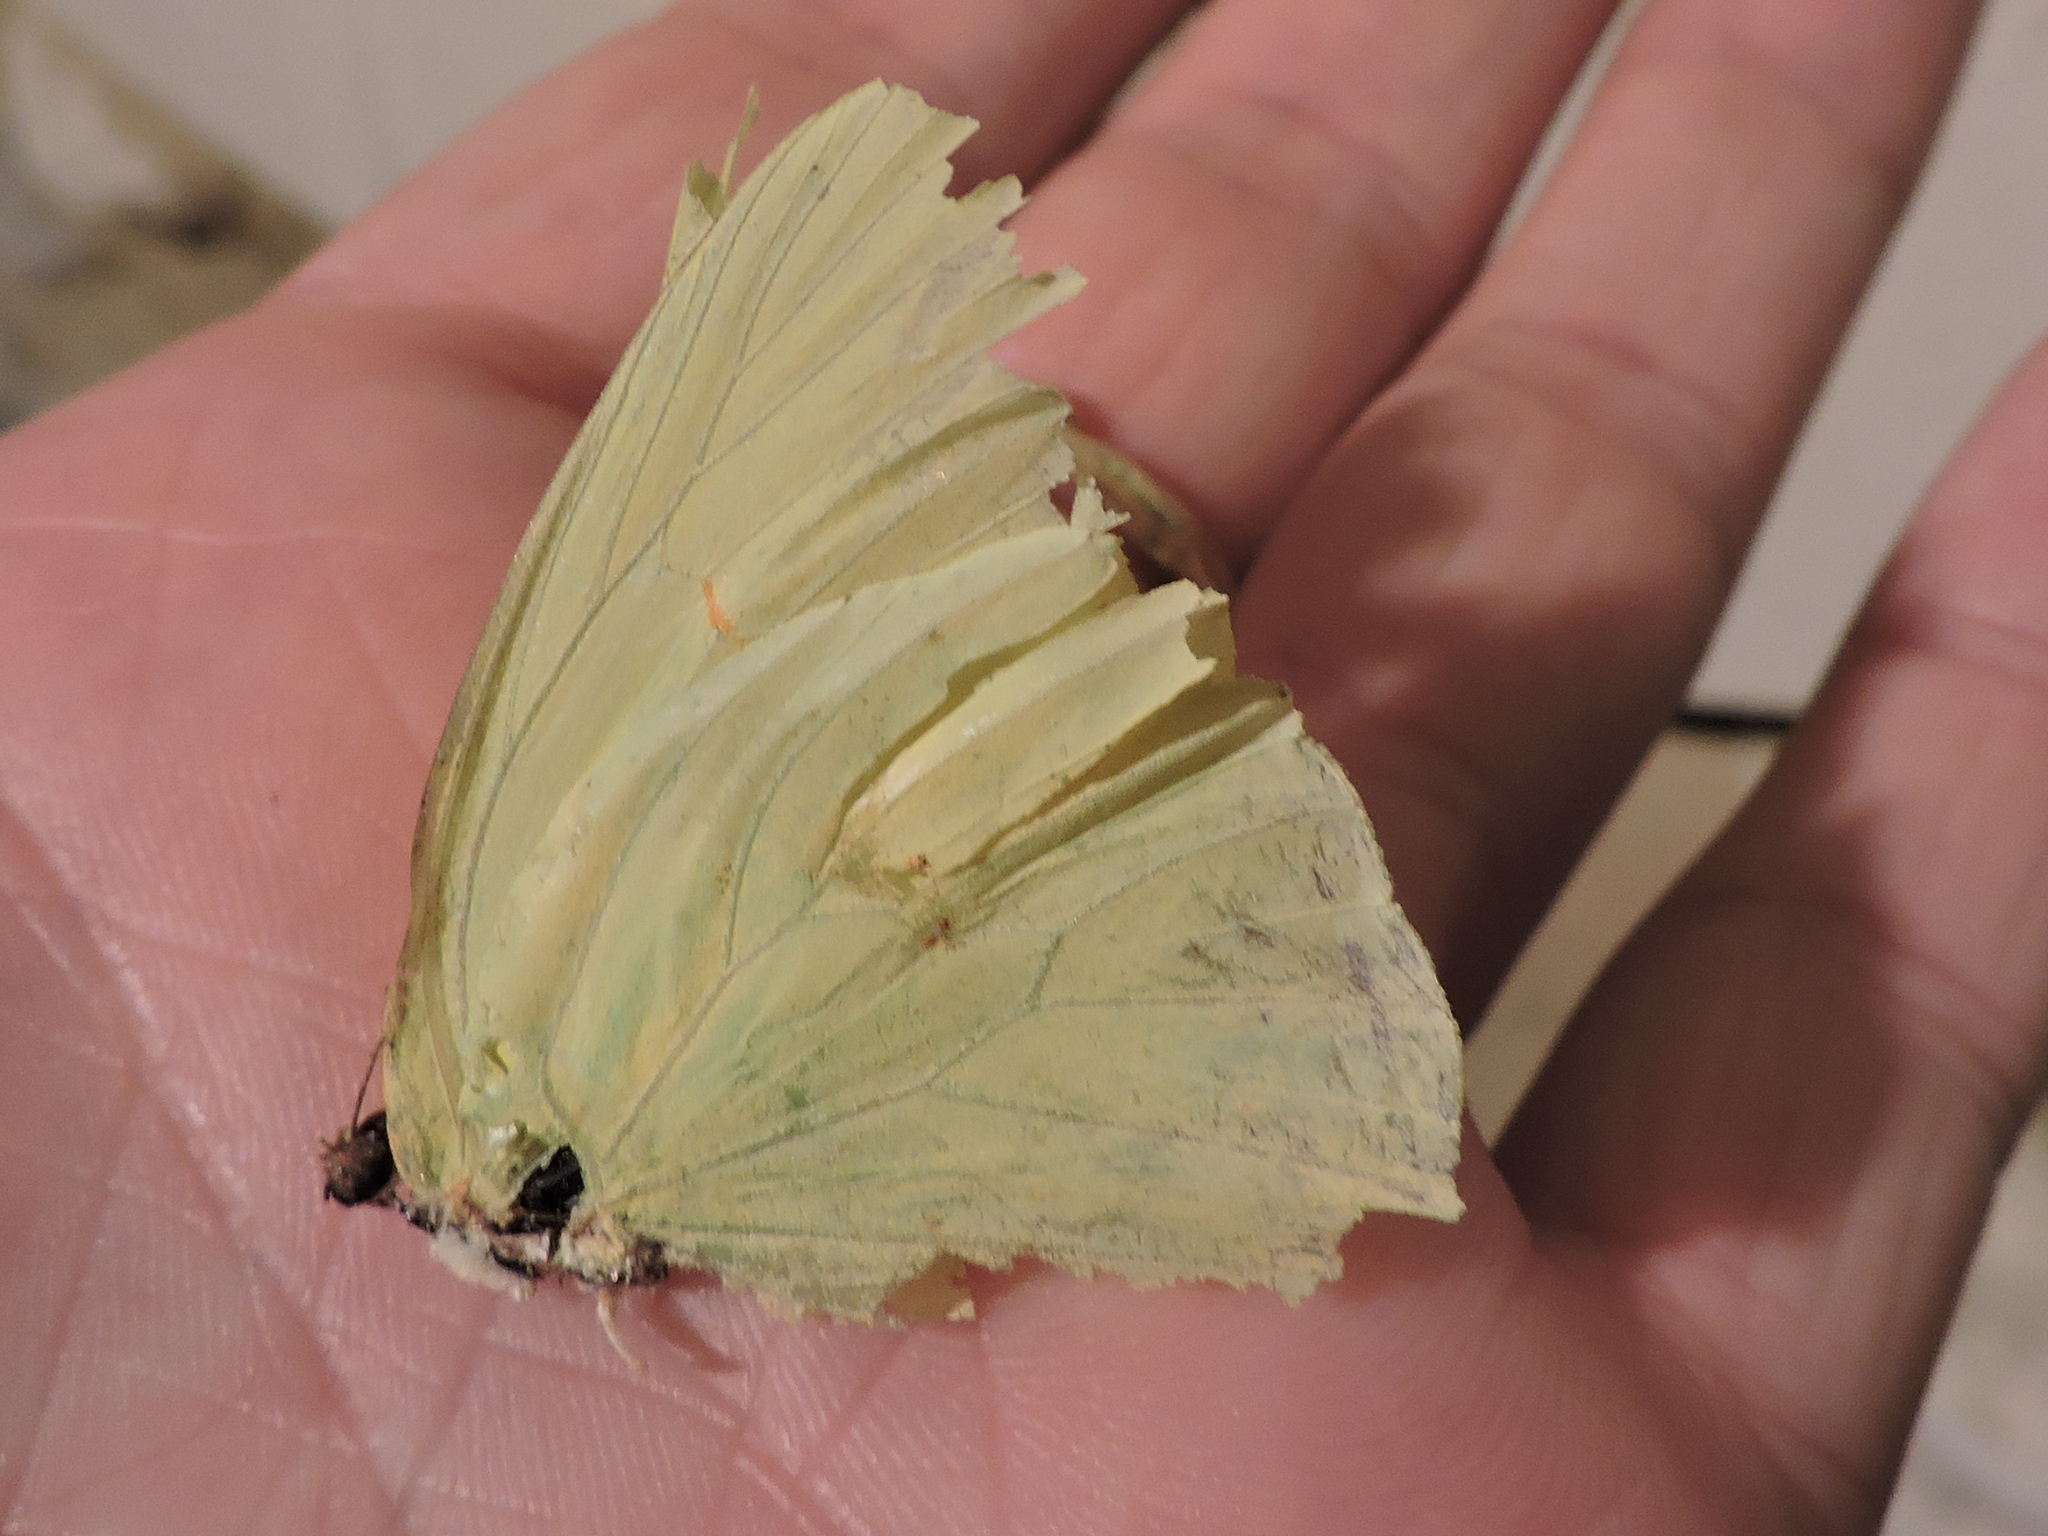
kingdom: Animalia
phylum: Arthropoda
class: Insecta
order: Lepidoptera
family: Pieridae
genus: Phoebis
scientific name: Phoebis sennae
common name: Cloudless sulphur
